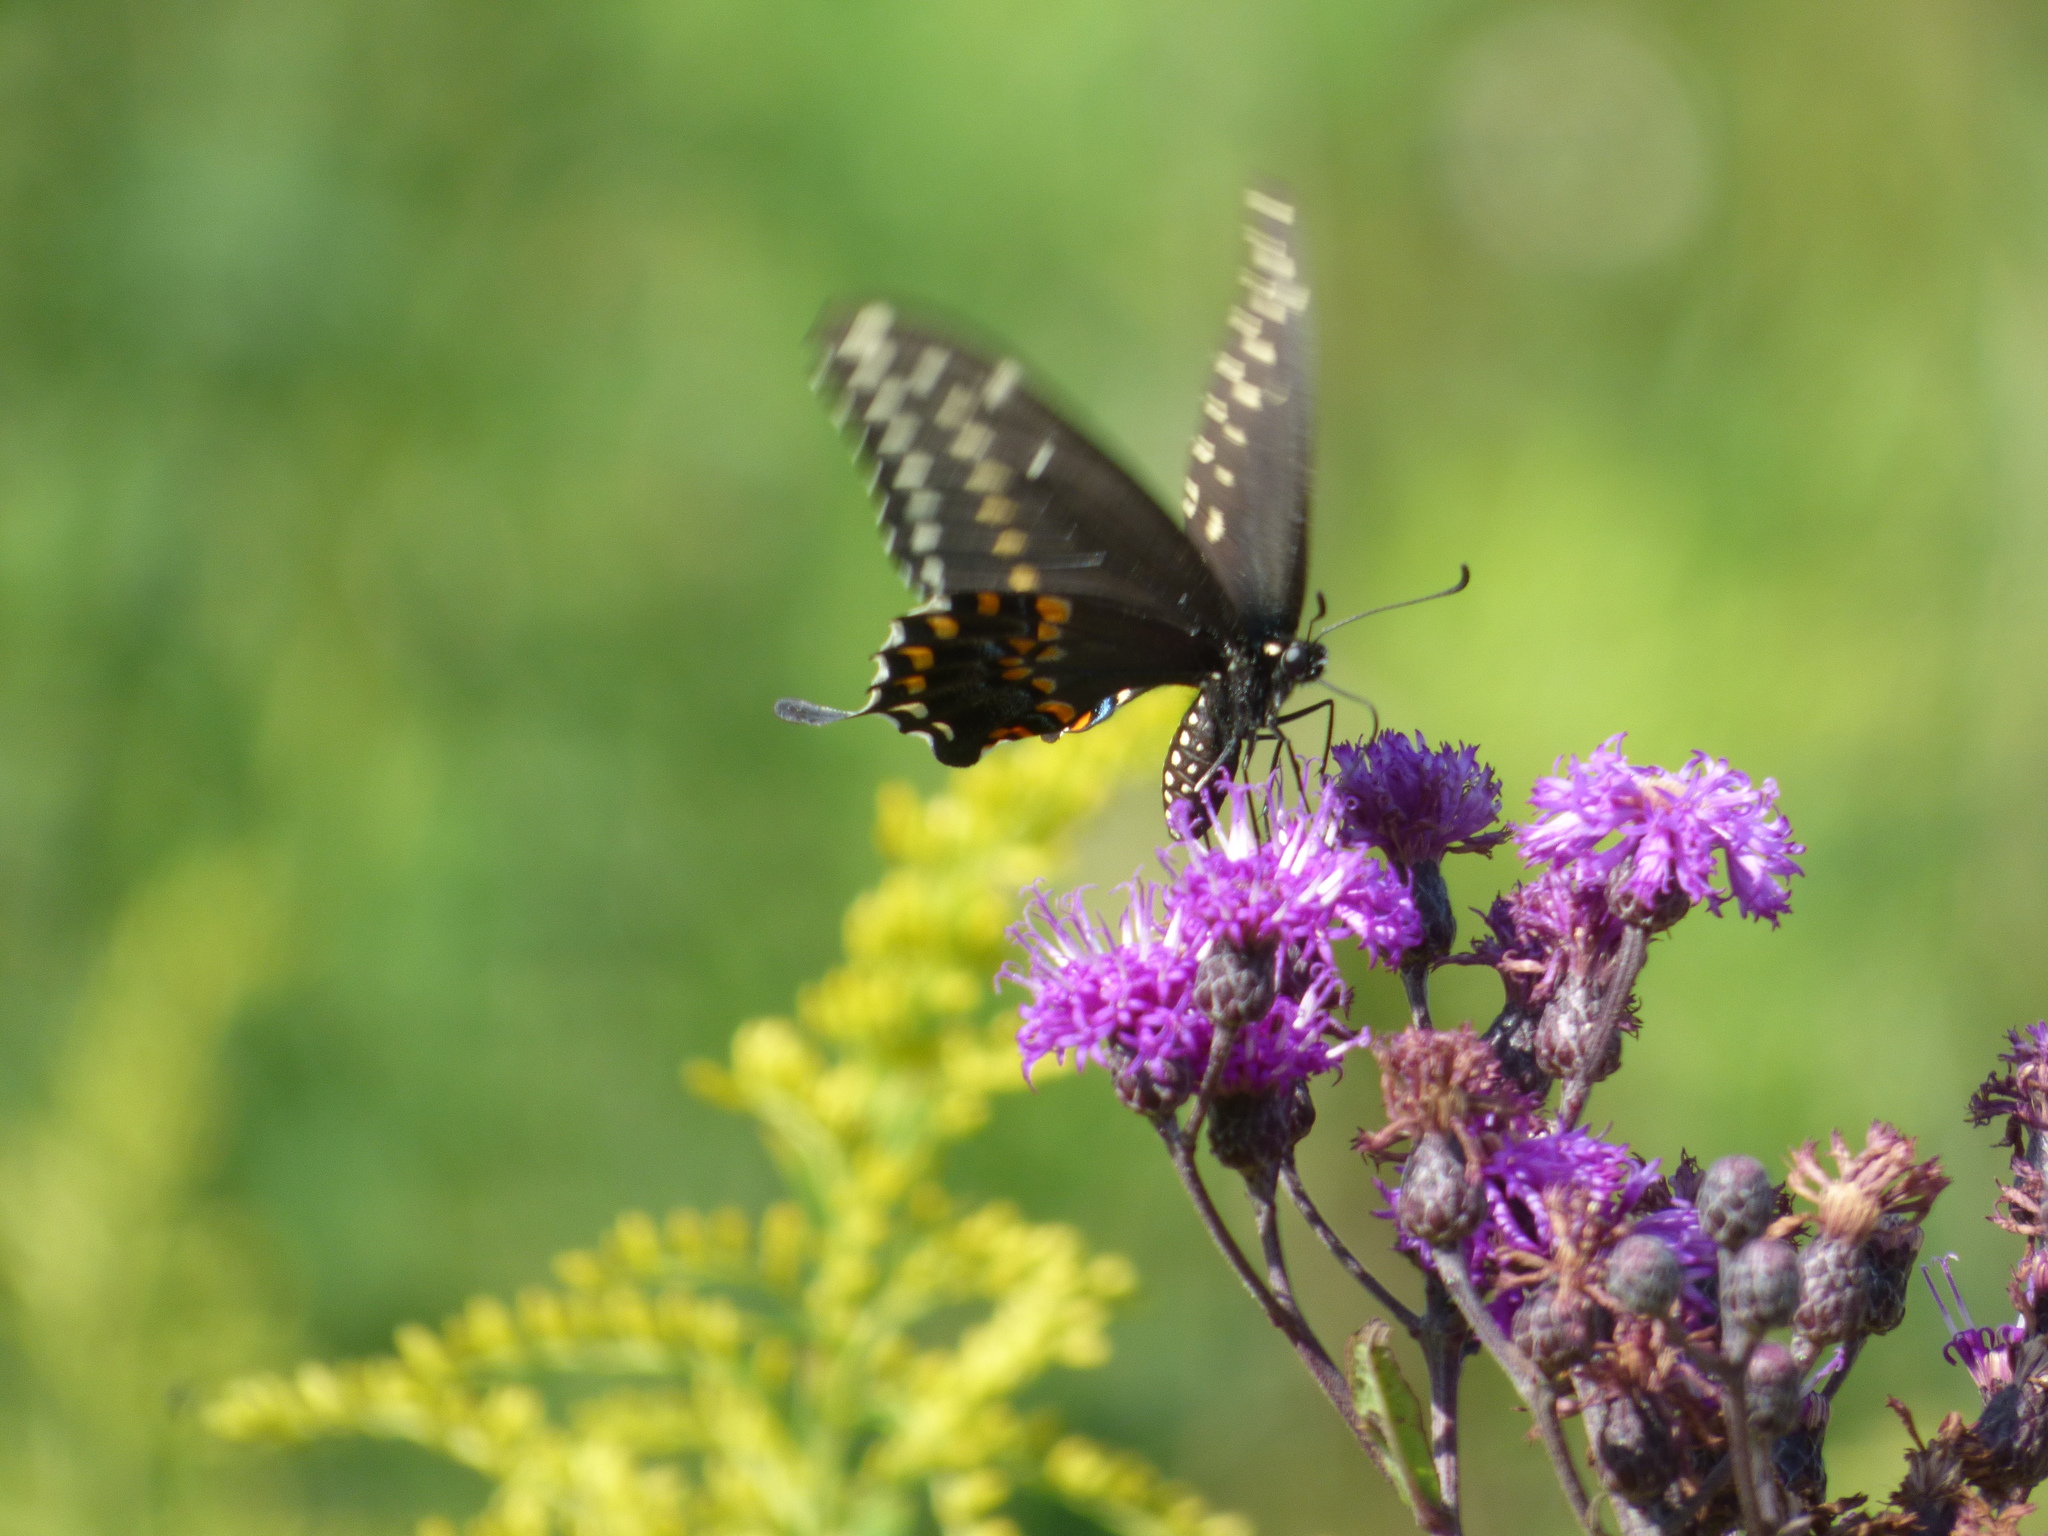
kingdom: Animalia
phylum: Arthropoda
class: Insecta
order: Lepidoptera
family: Papilionidae
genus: Papilio
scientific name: Papilio polyxenes
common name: Black swallowtail
